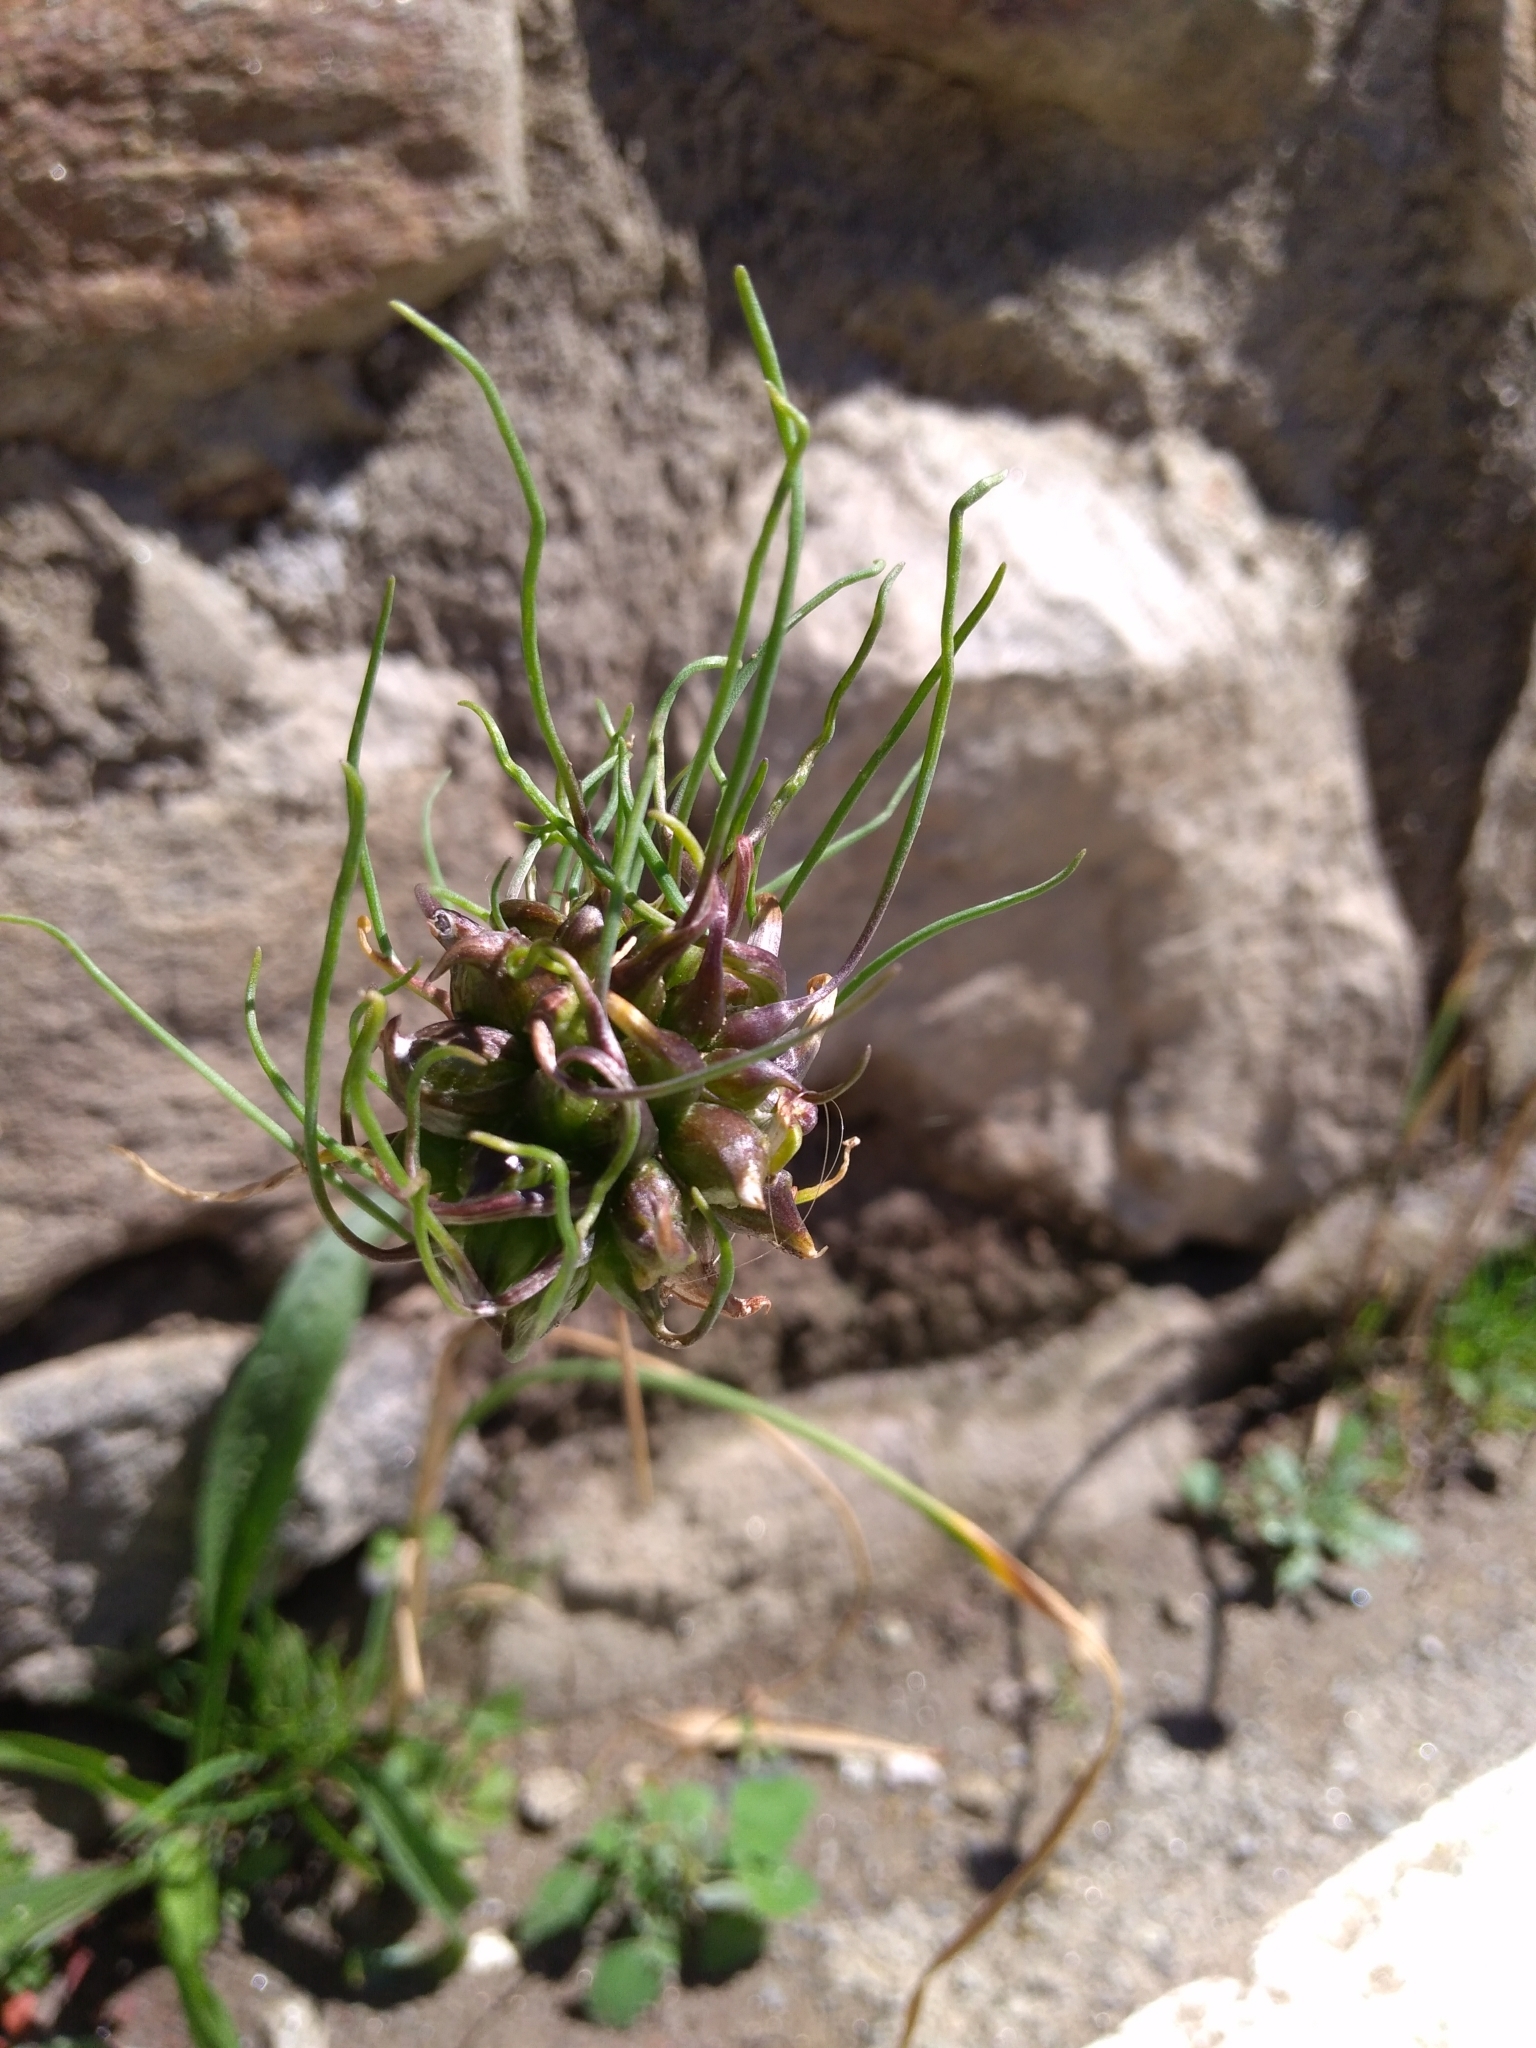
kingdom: Plantae
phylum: Tracheophyta
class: Liliopsida
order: Asparagales
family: Amaryllidaceae
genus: Allium
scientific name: Allium vineale
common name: Crow garlic
